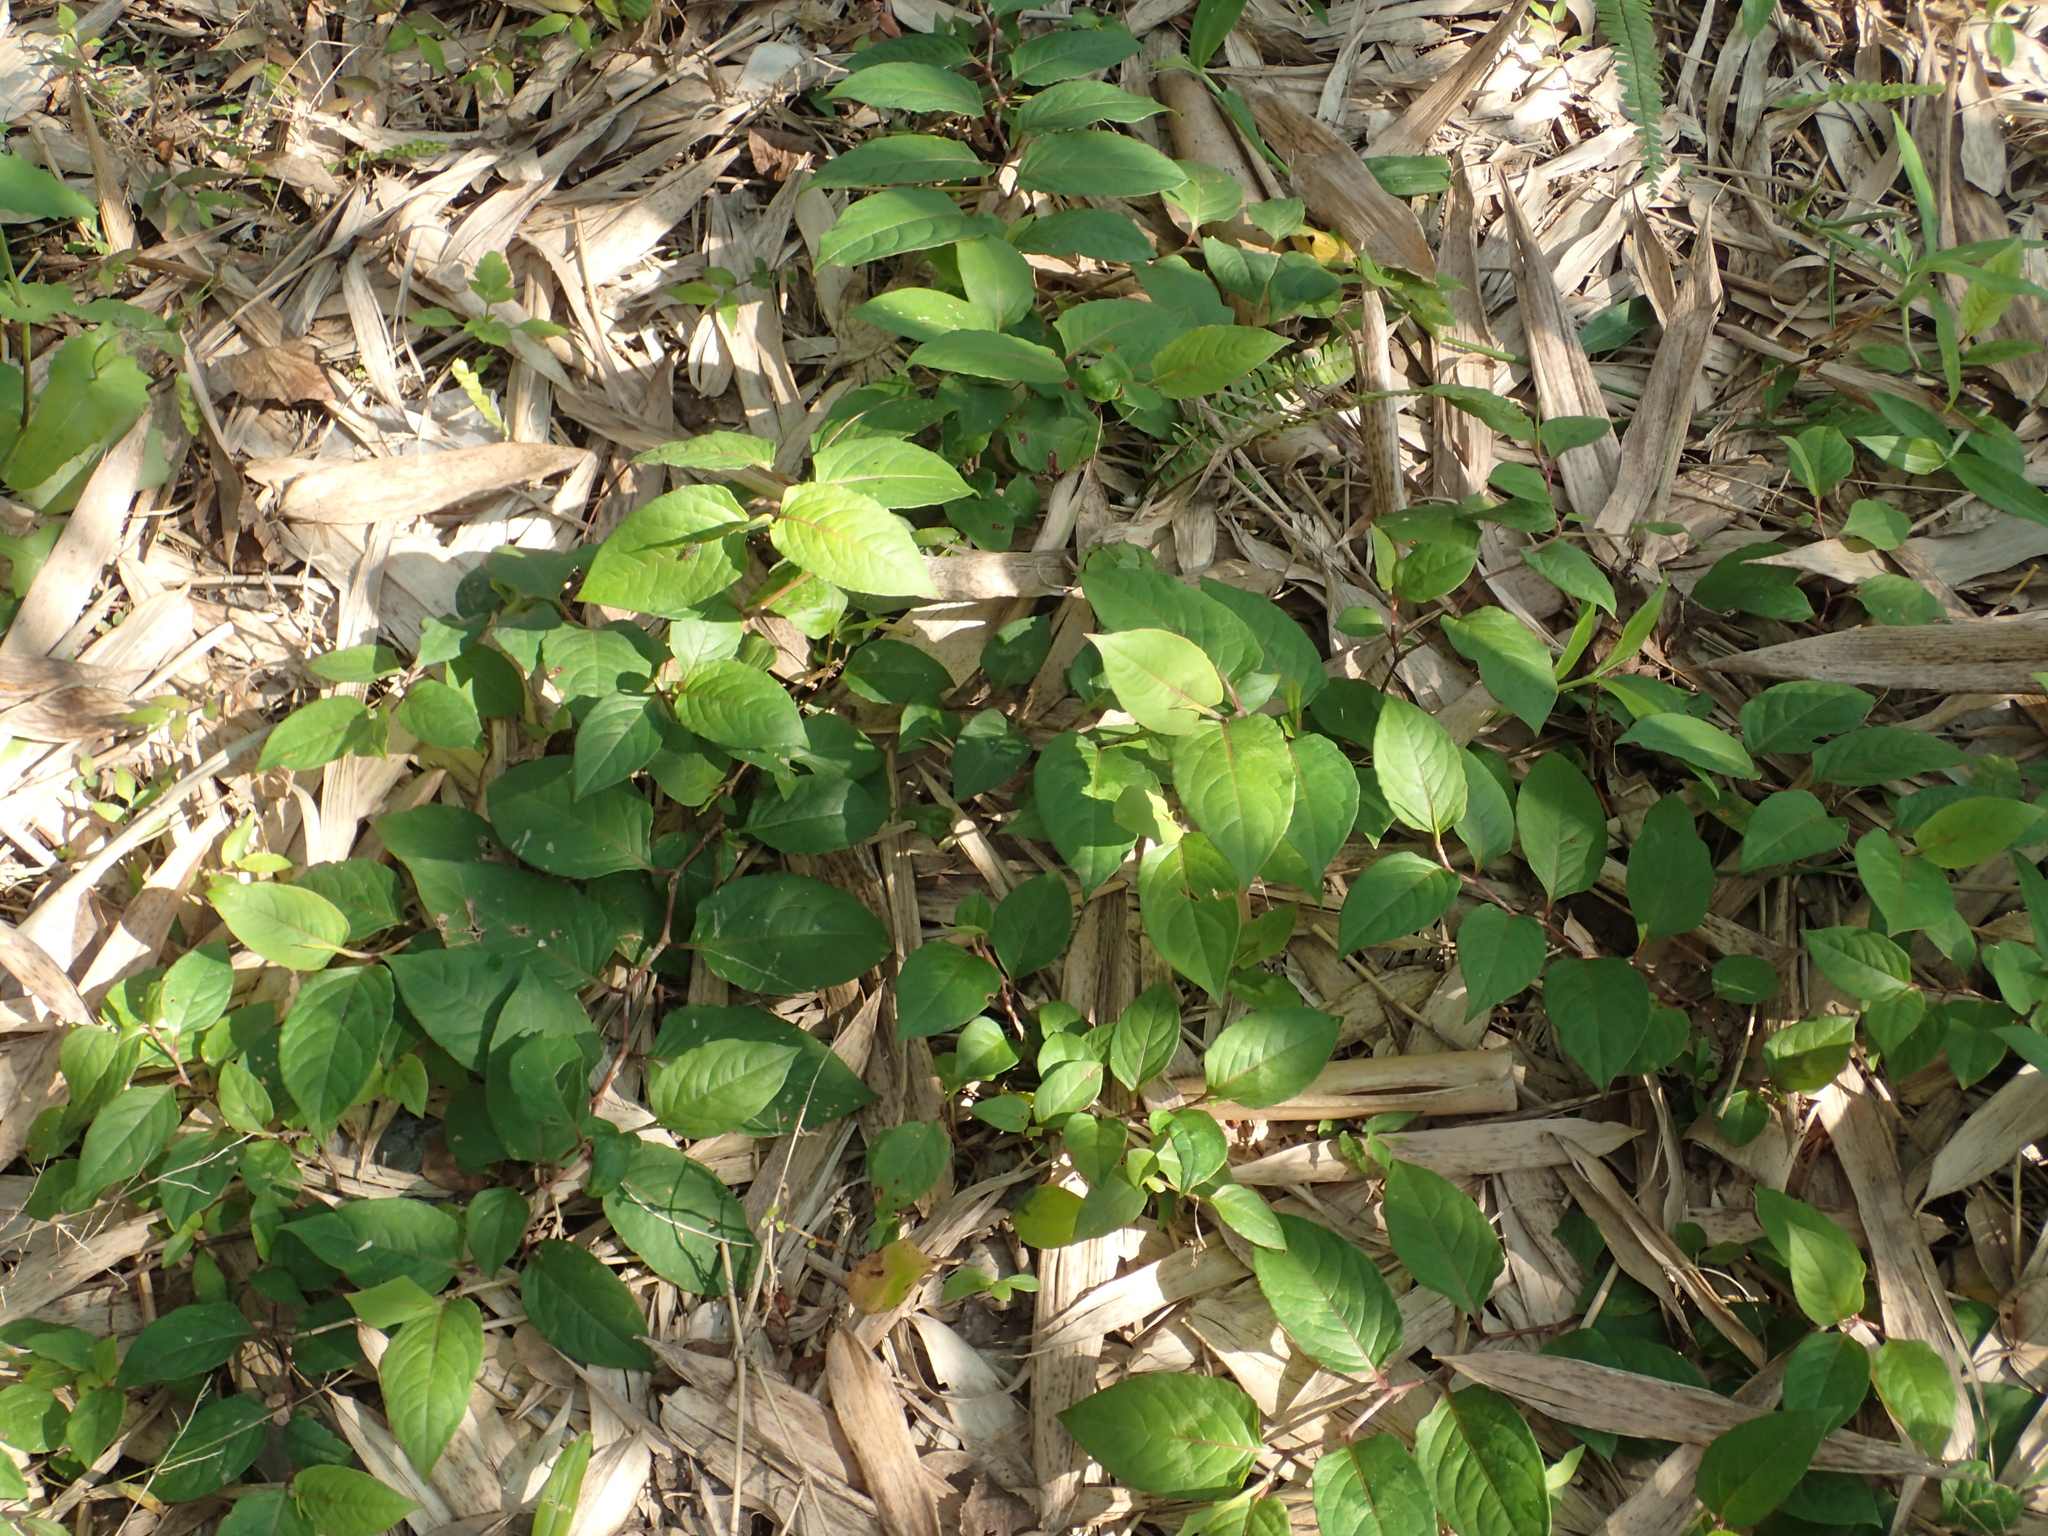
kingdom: Plantae
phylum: Tracheophyta
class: Magnoliopsida
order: Caryophyllales
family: Polygonaceae
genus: Persicaria
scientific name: Persicaria chinensis
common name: Chinese knotweed
